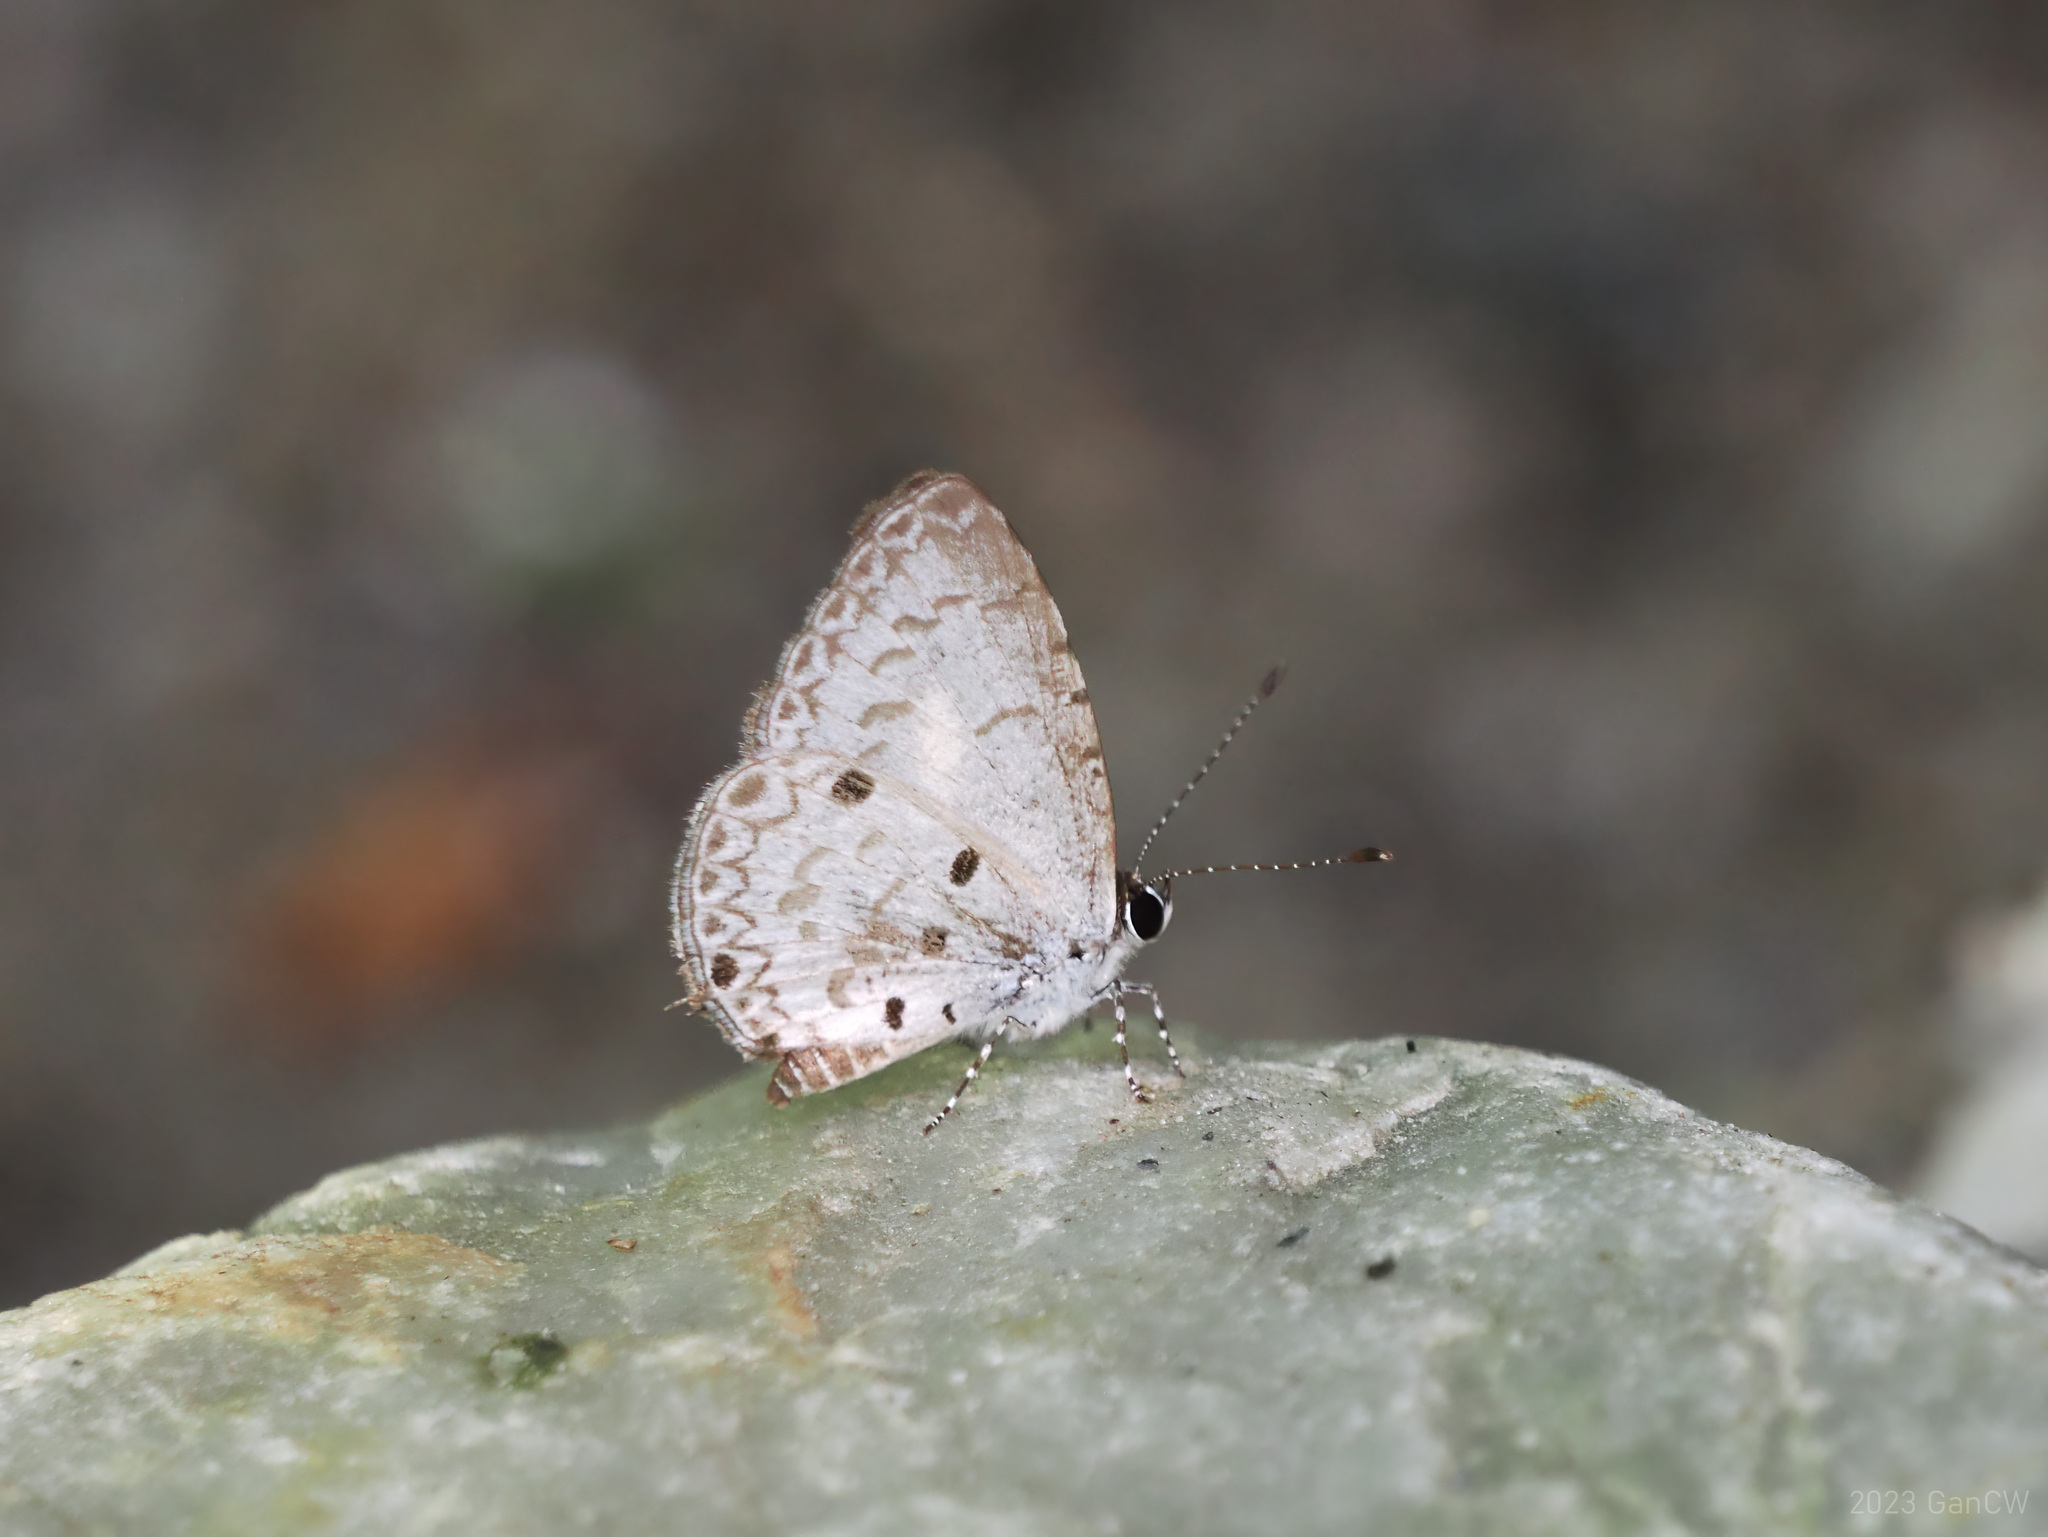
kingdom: Animalia
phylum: Arthropoda
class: Insecta
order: Lepidoptera
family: Lycaenidae
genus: Megisba
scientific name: Megisba malaya
